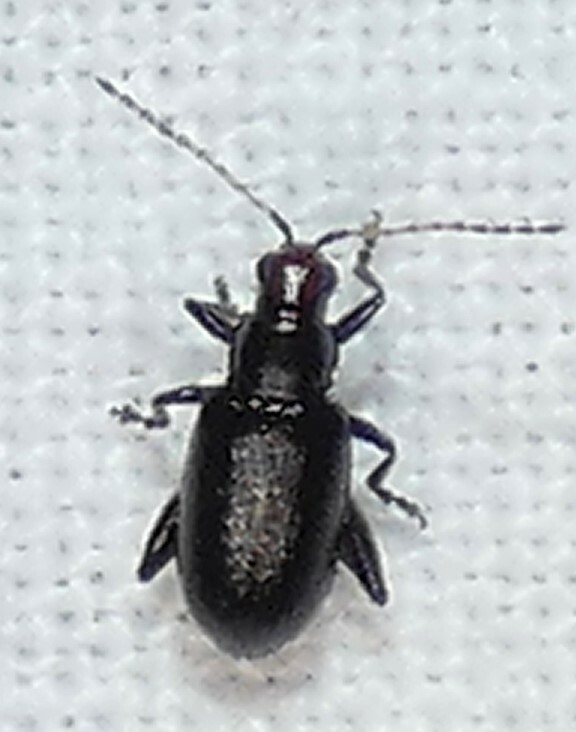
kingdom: Animalia
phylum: Arthropoda
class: Insecta
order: Coleoptera
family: Chrysomelidae
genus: Systena
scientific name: Systena frontalis
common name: Red-headed flea beetle
